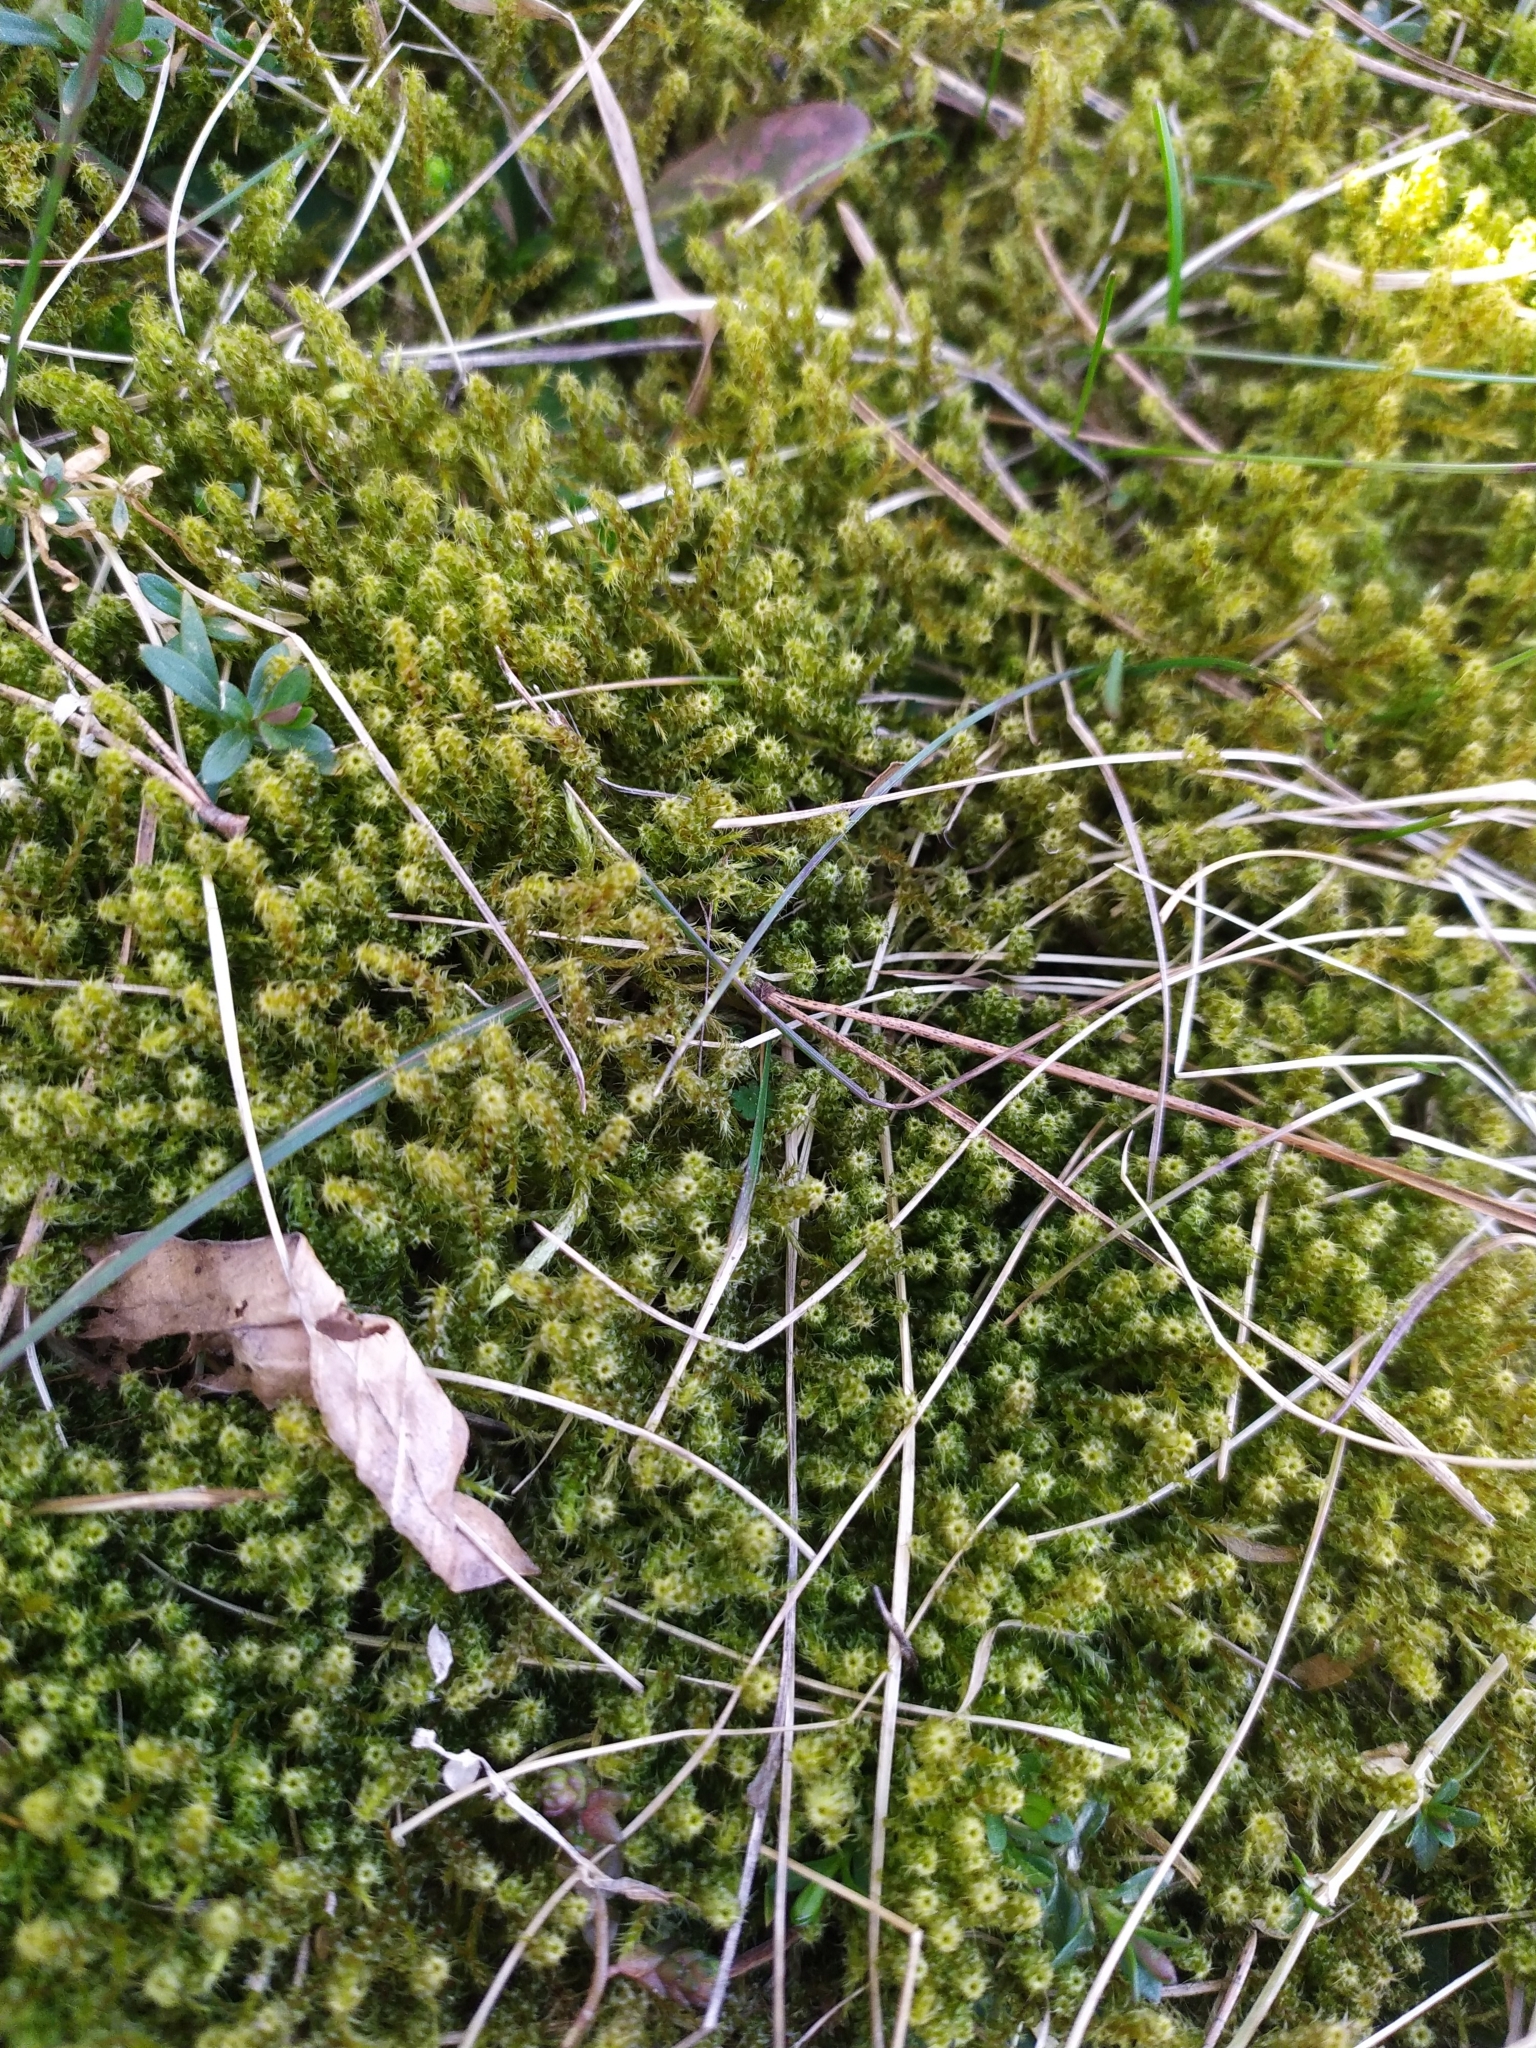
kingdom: Plantae
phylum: Bryophyta
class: Bryopsida
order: Hypnales
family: Hylocomiaceae
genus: Rhytidiadelphus
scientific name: Rhytidiadelphus squarrosus
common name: Springy turf-moss
